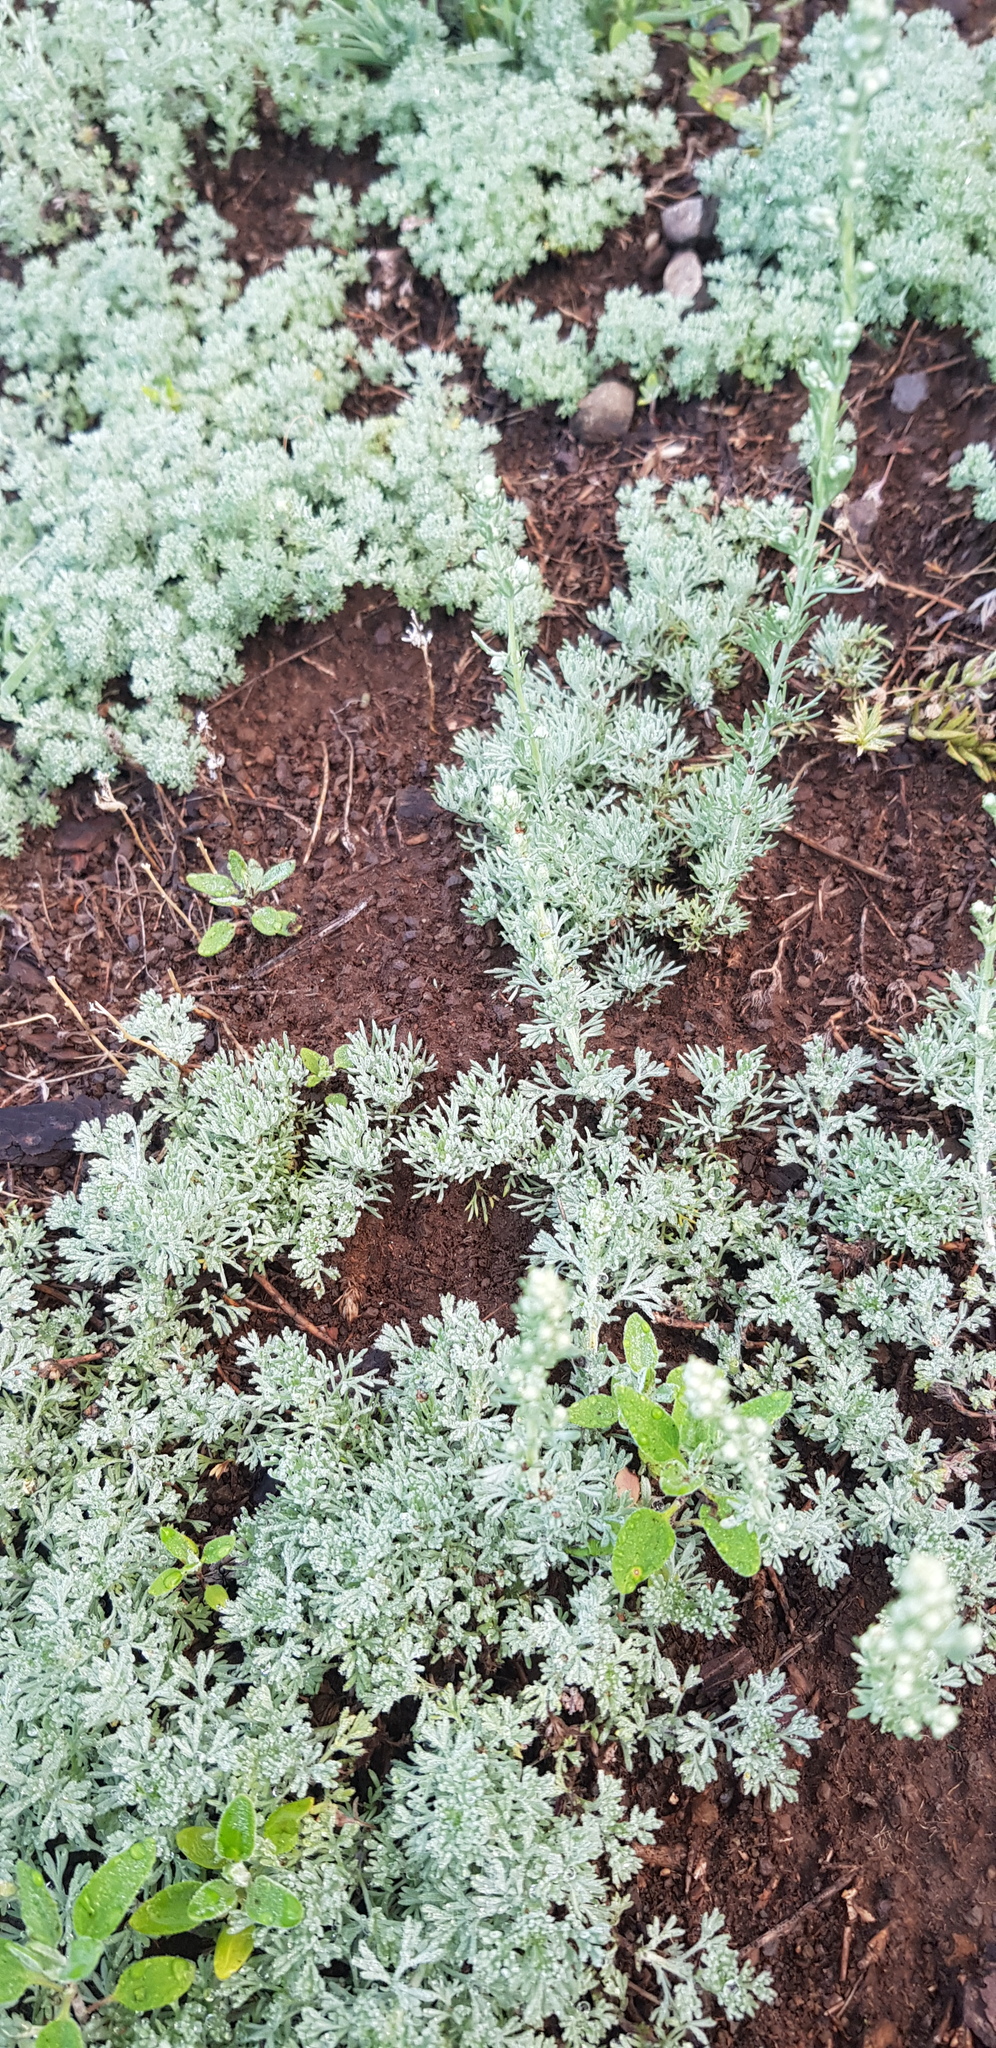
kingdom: Plantae
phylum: Tracheophyta
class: Magnoliopsida
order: Asterales
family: Asteraceae
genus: Artemisia
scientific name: Artemisia frigida
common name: Prairie sagewort
